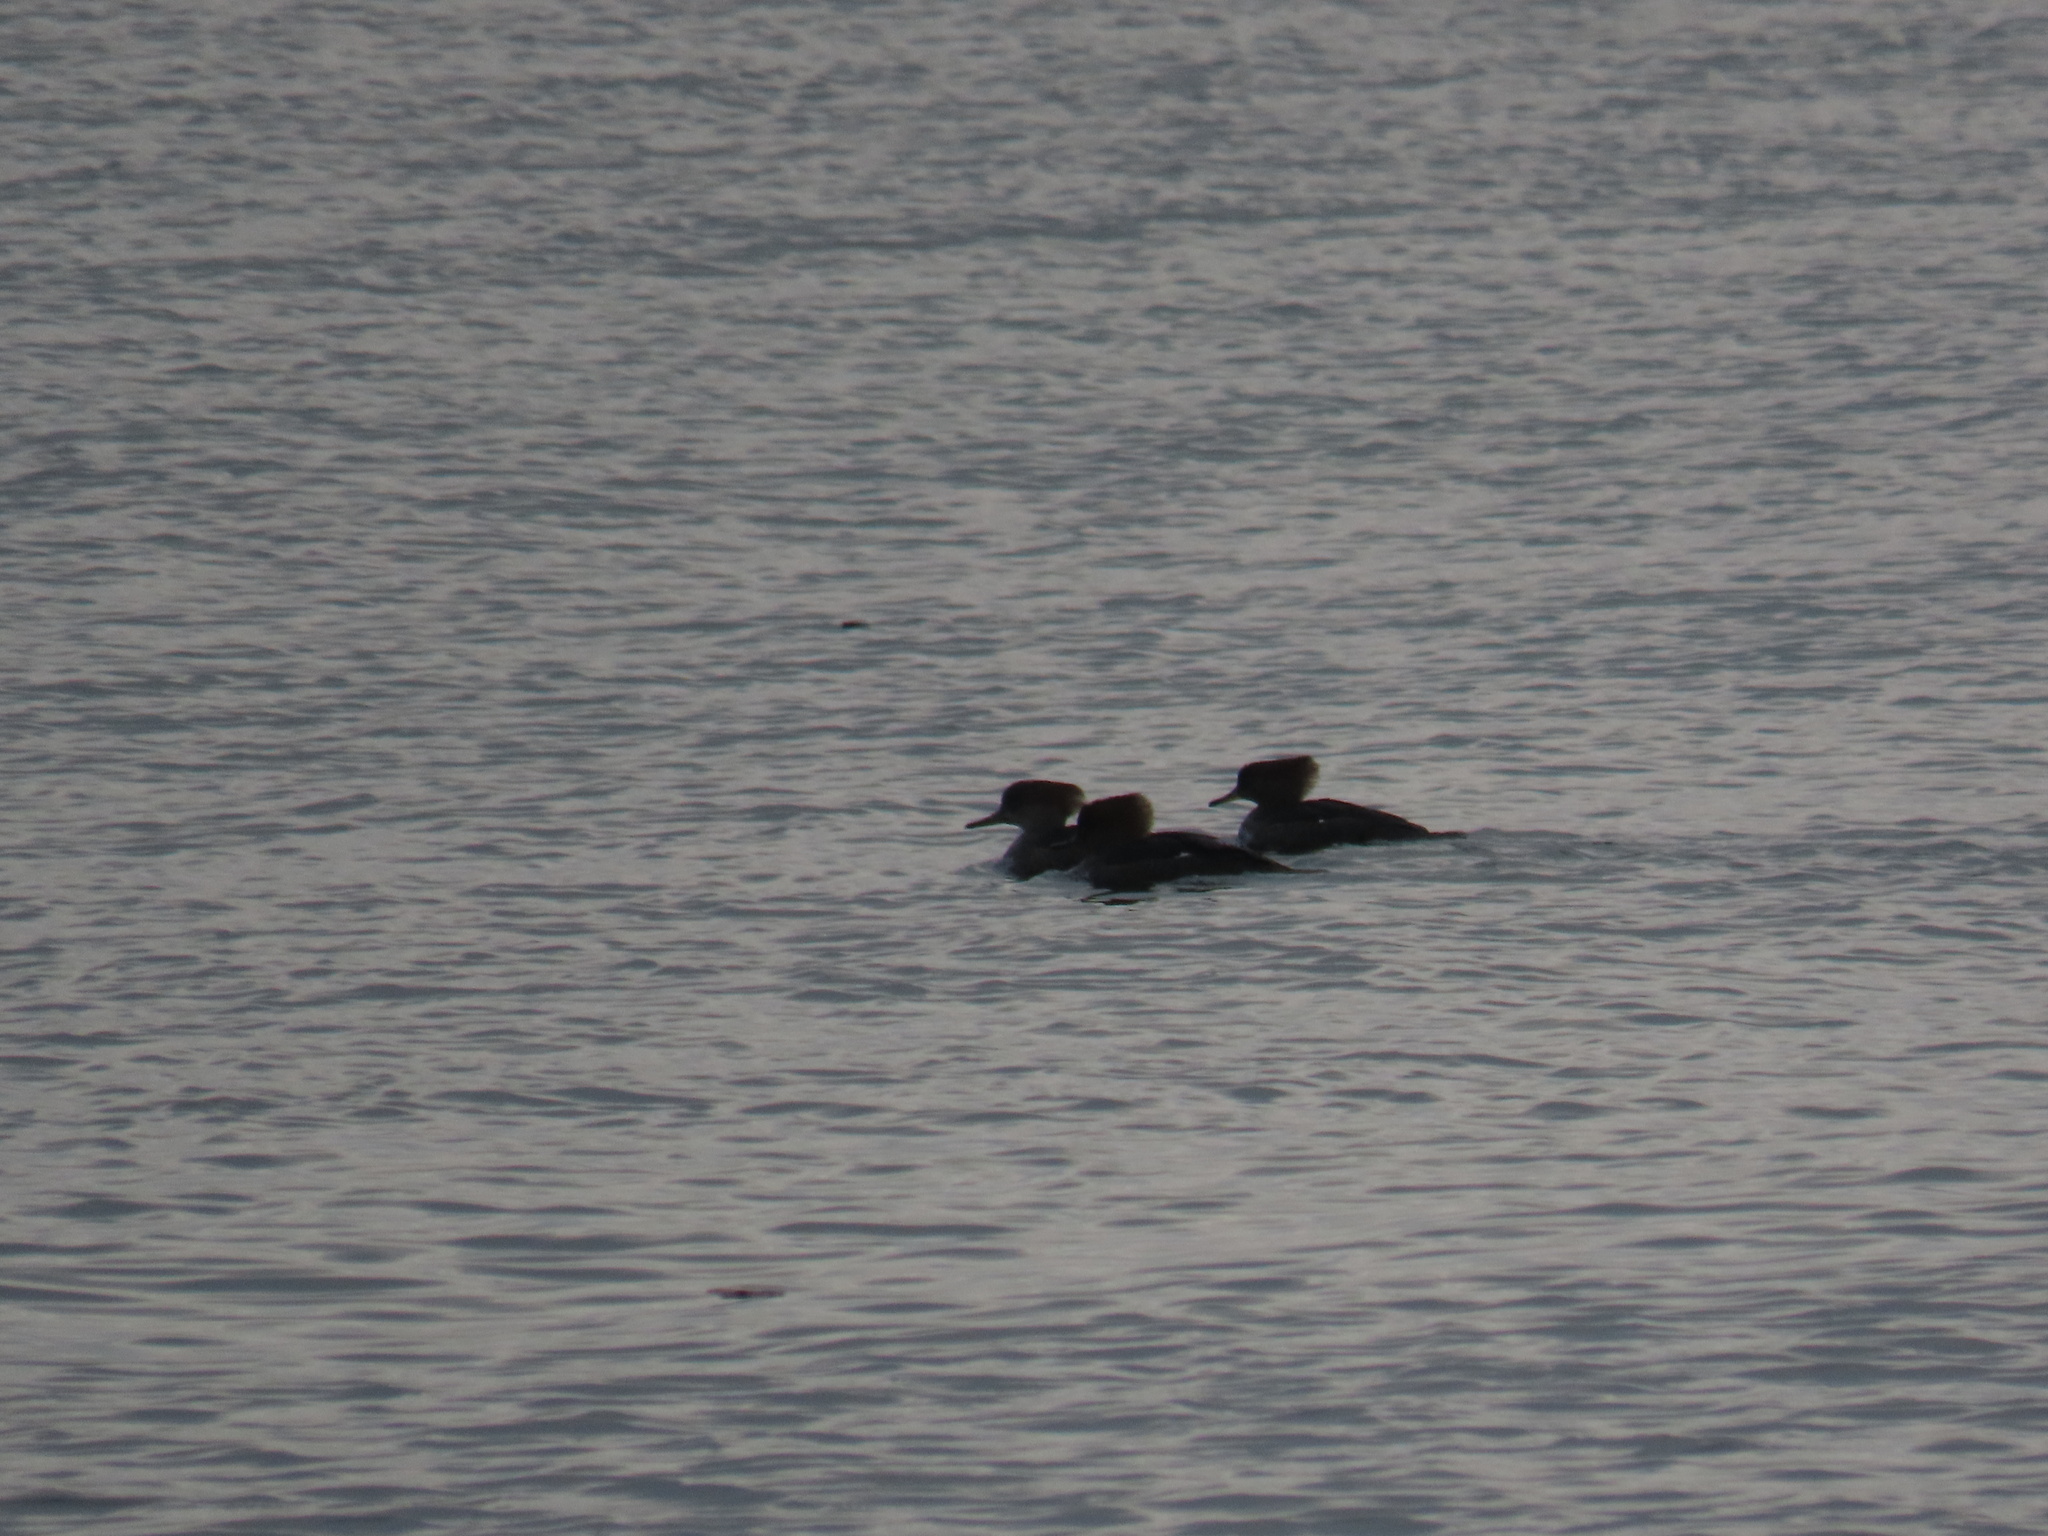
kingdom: Animalia
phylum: Chordata
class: Aves
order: Anseriformes
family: Anatidae
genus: Lophodytes
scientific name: Lophodytes cucullatus
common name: Hooded merganser
